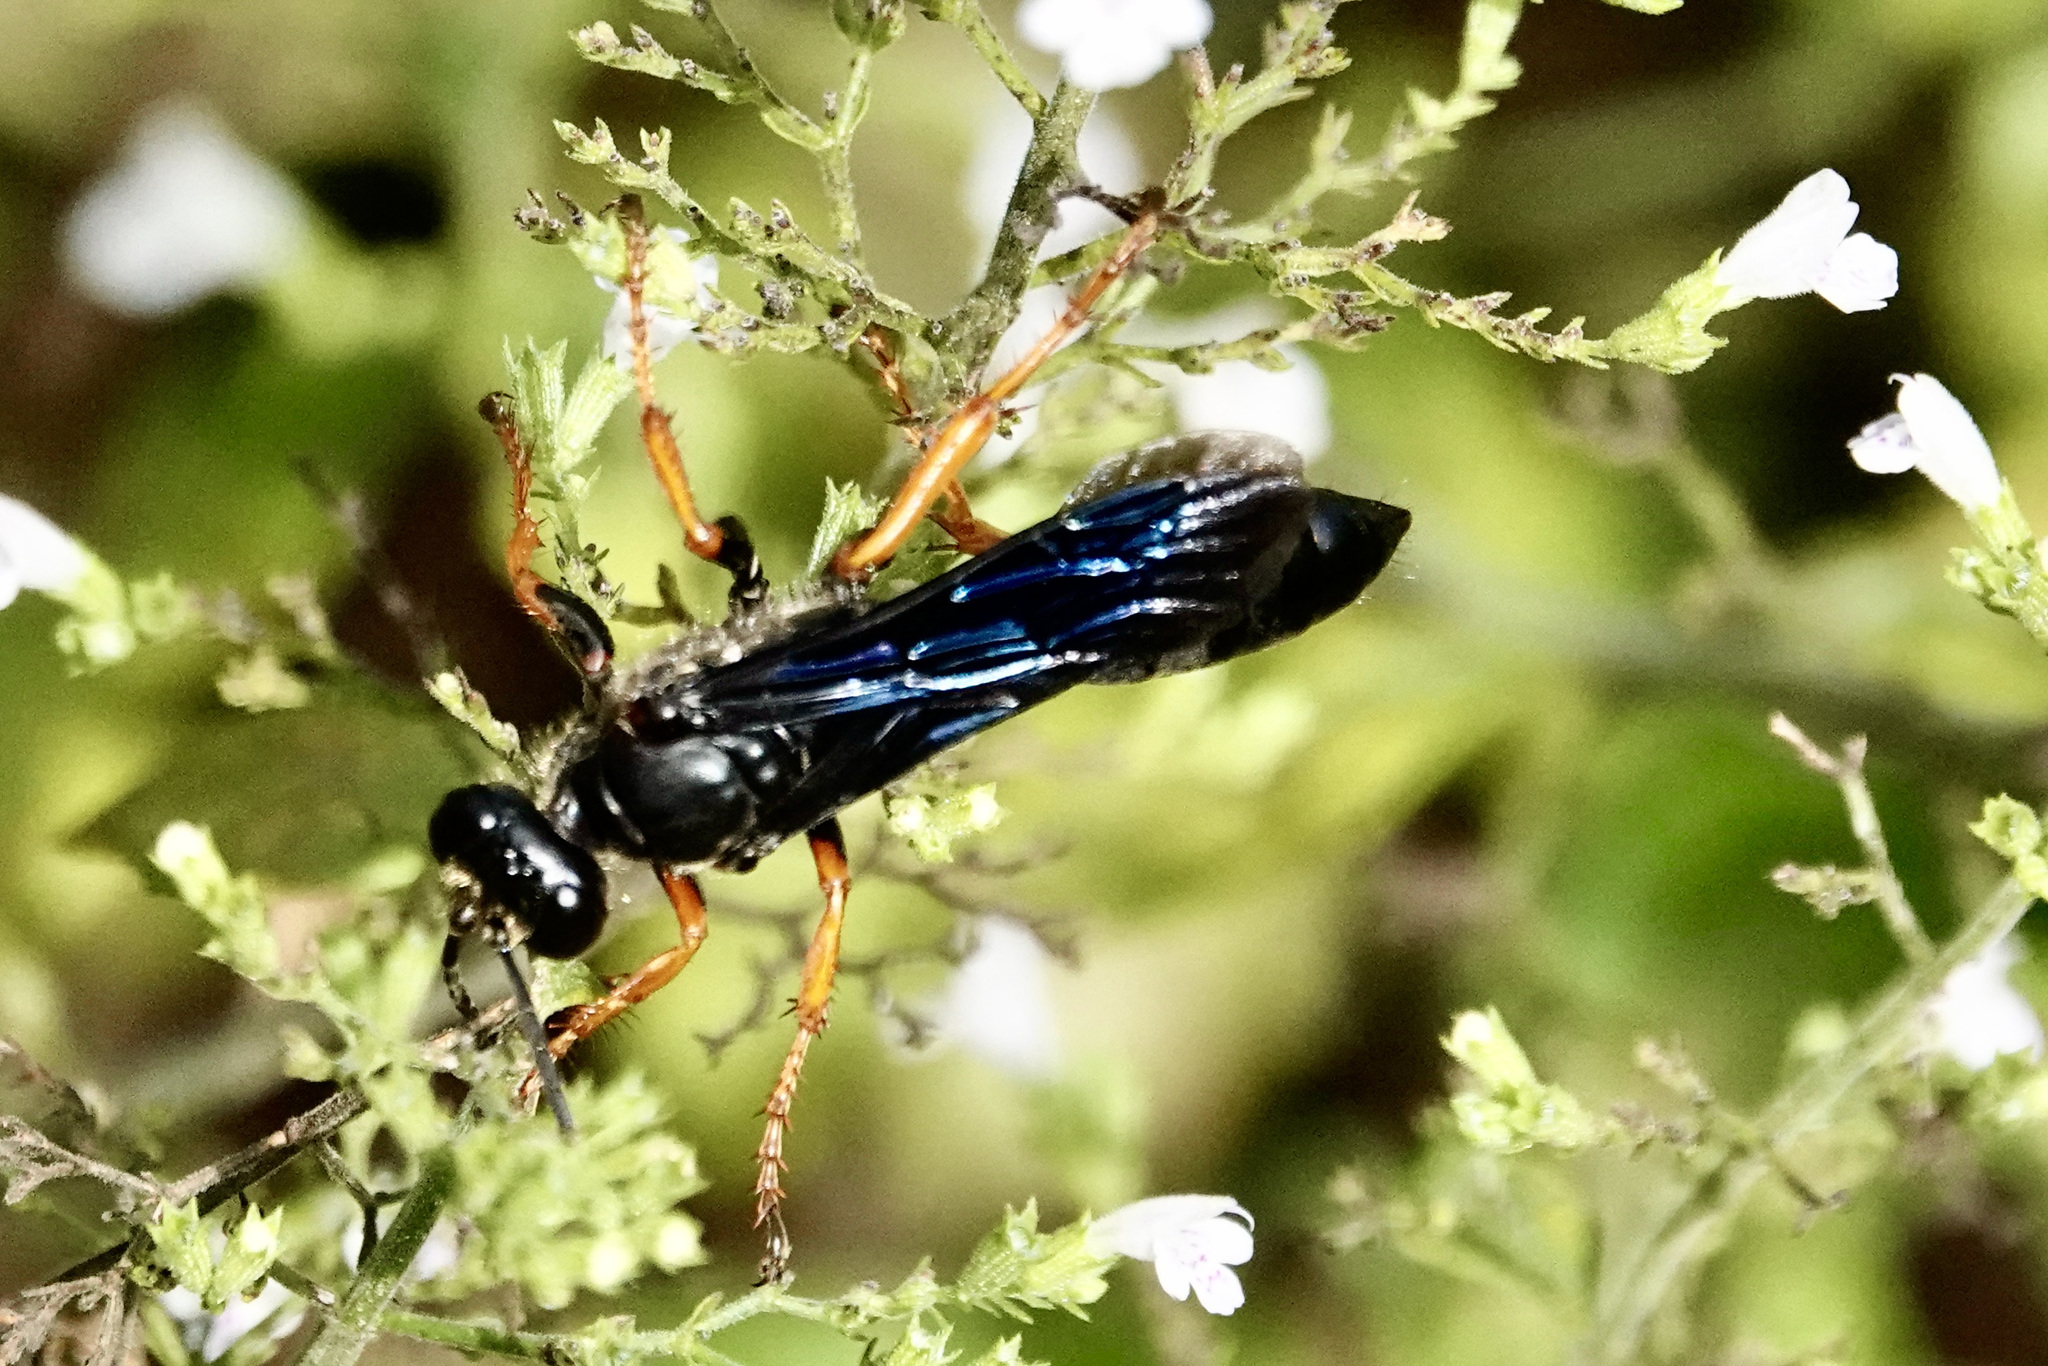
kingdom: Animalia
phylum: Arthropoda
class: Insecta
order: Hymenoptera
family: Sphecidae
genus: Sphex
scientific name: Sphex nudus
